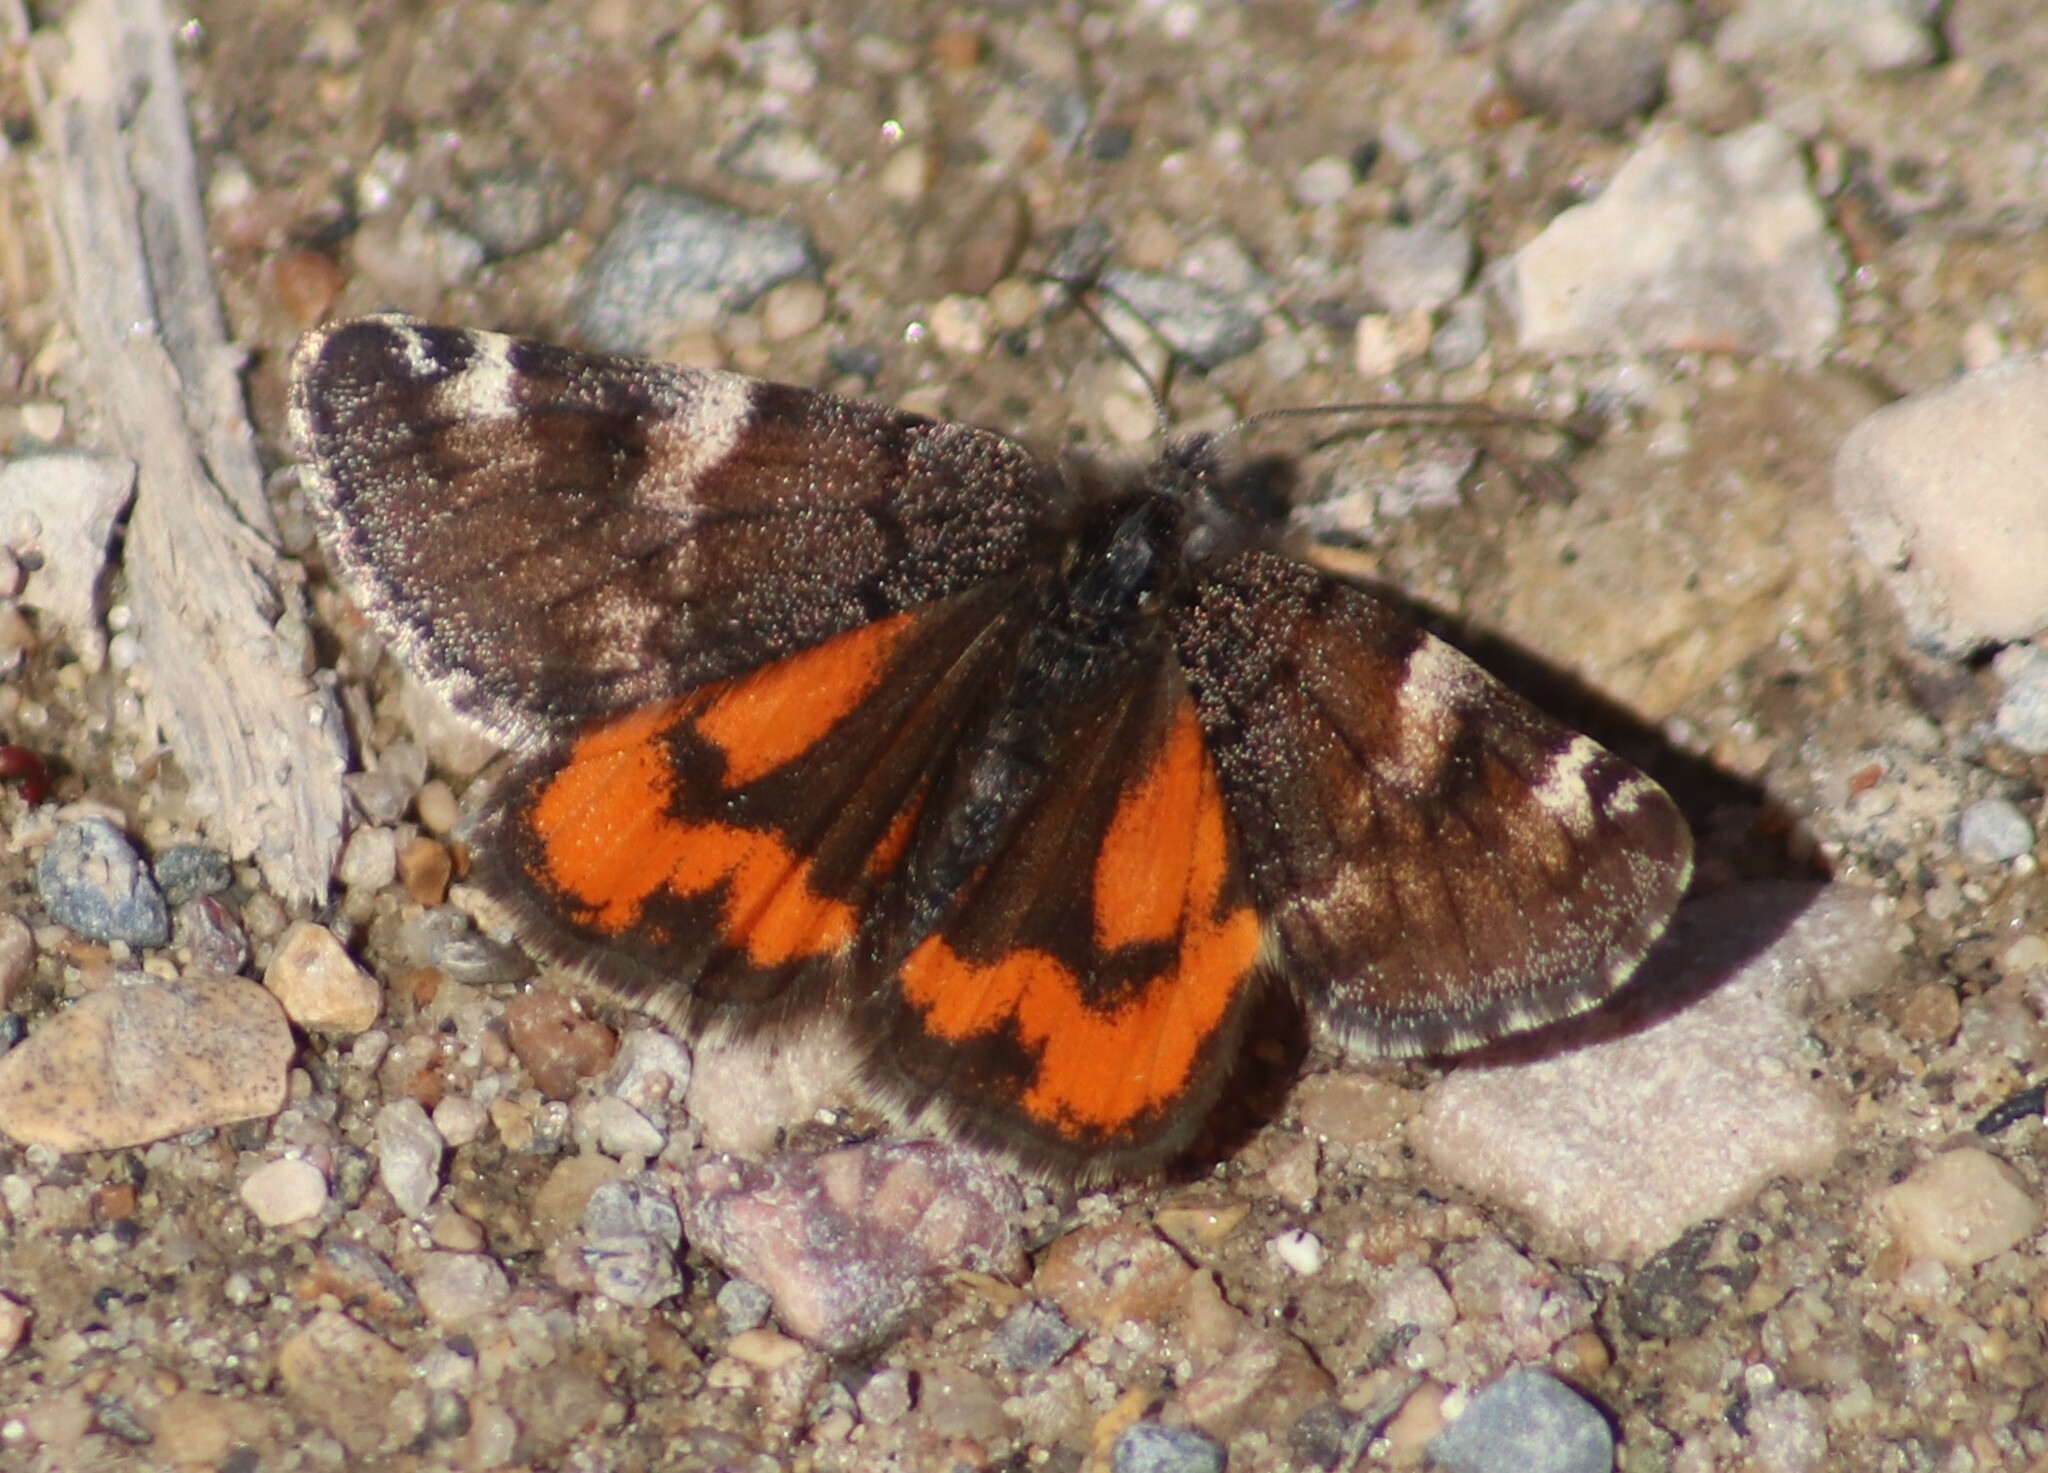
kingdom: Animalia
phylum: Arthropoda
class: Insecta
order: Lepidoptera
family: Geometridae
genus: Archiearis
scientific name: Archiearis infans
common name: First born geometer
